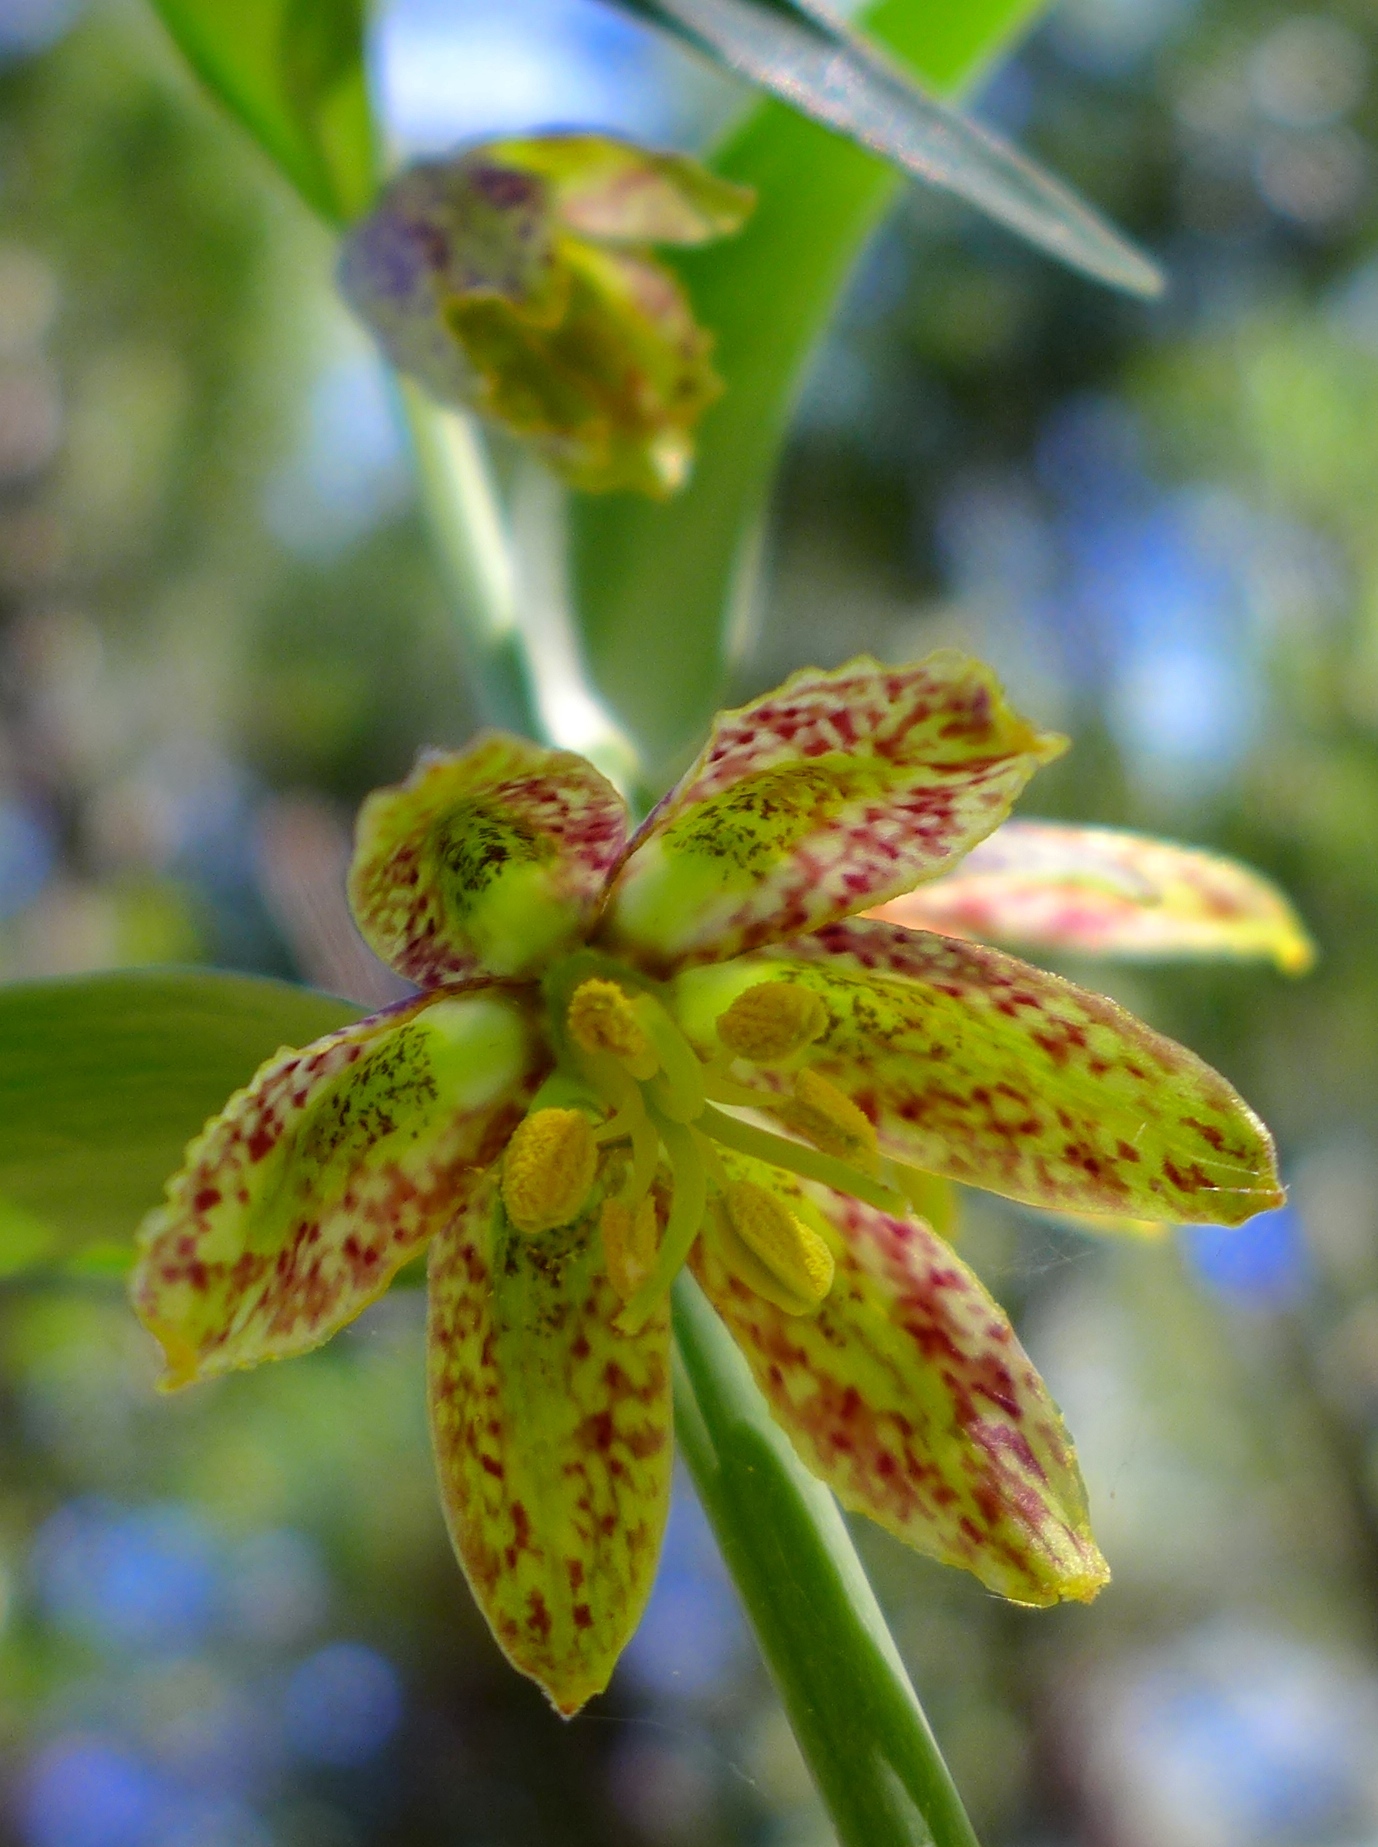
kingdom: Plantae
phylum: Tracheophyta
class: Liliopsida
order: Liliales
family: Liliaceae
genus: Fritillaria
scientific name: Fritillaria affinis
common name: Ojai fritillary
